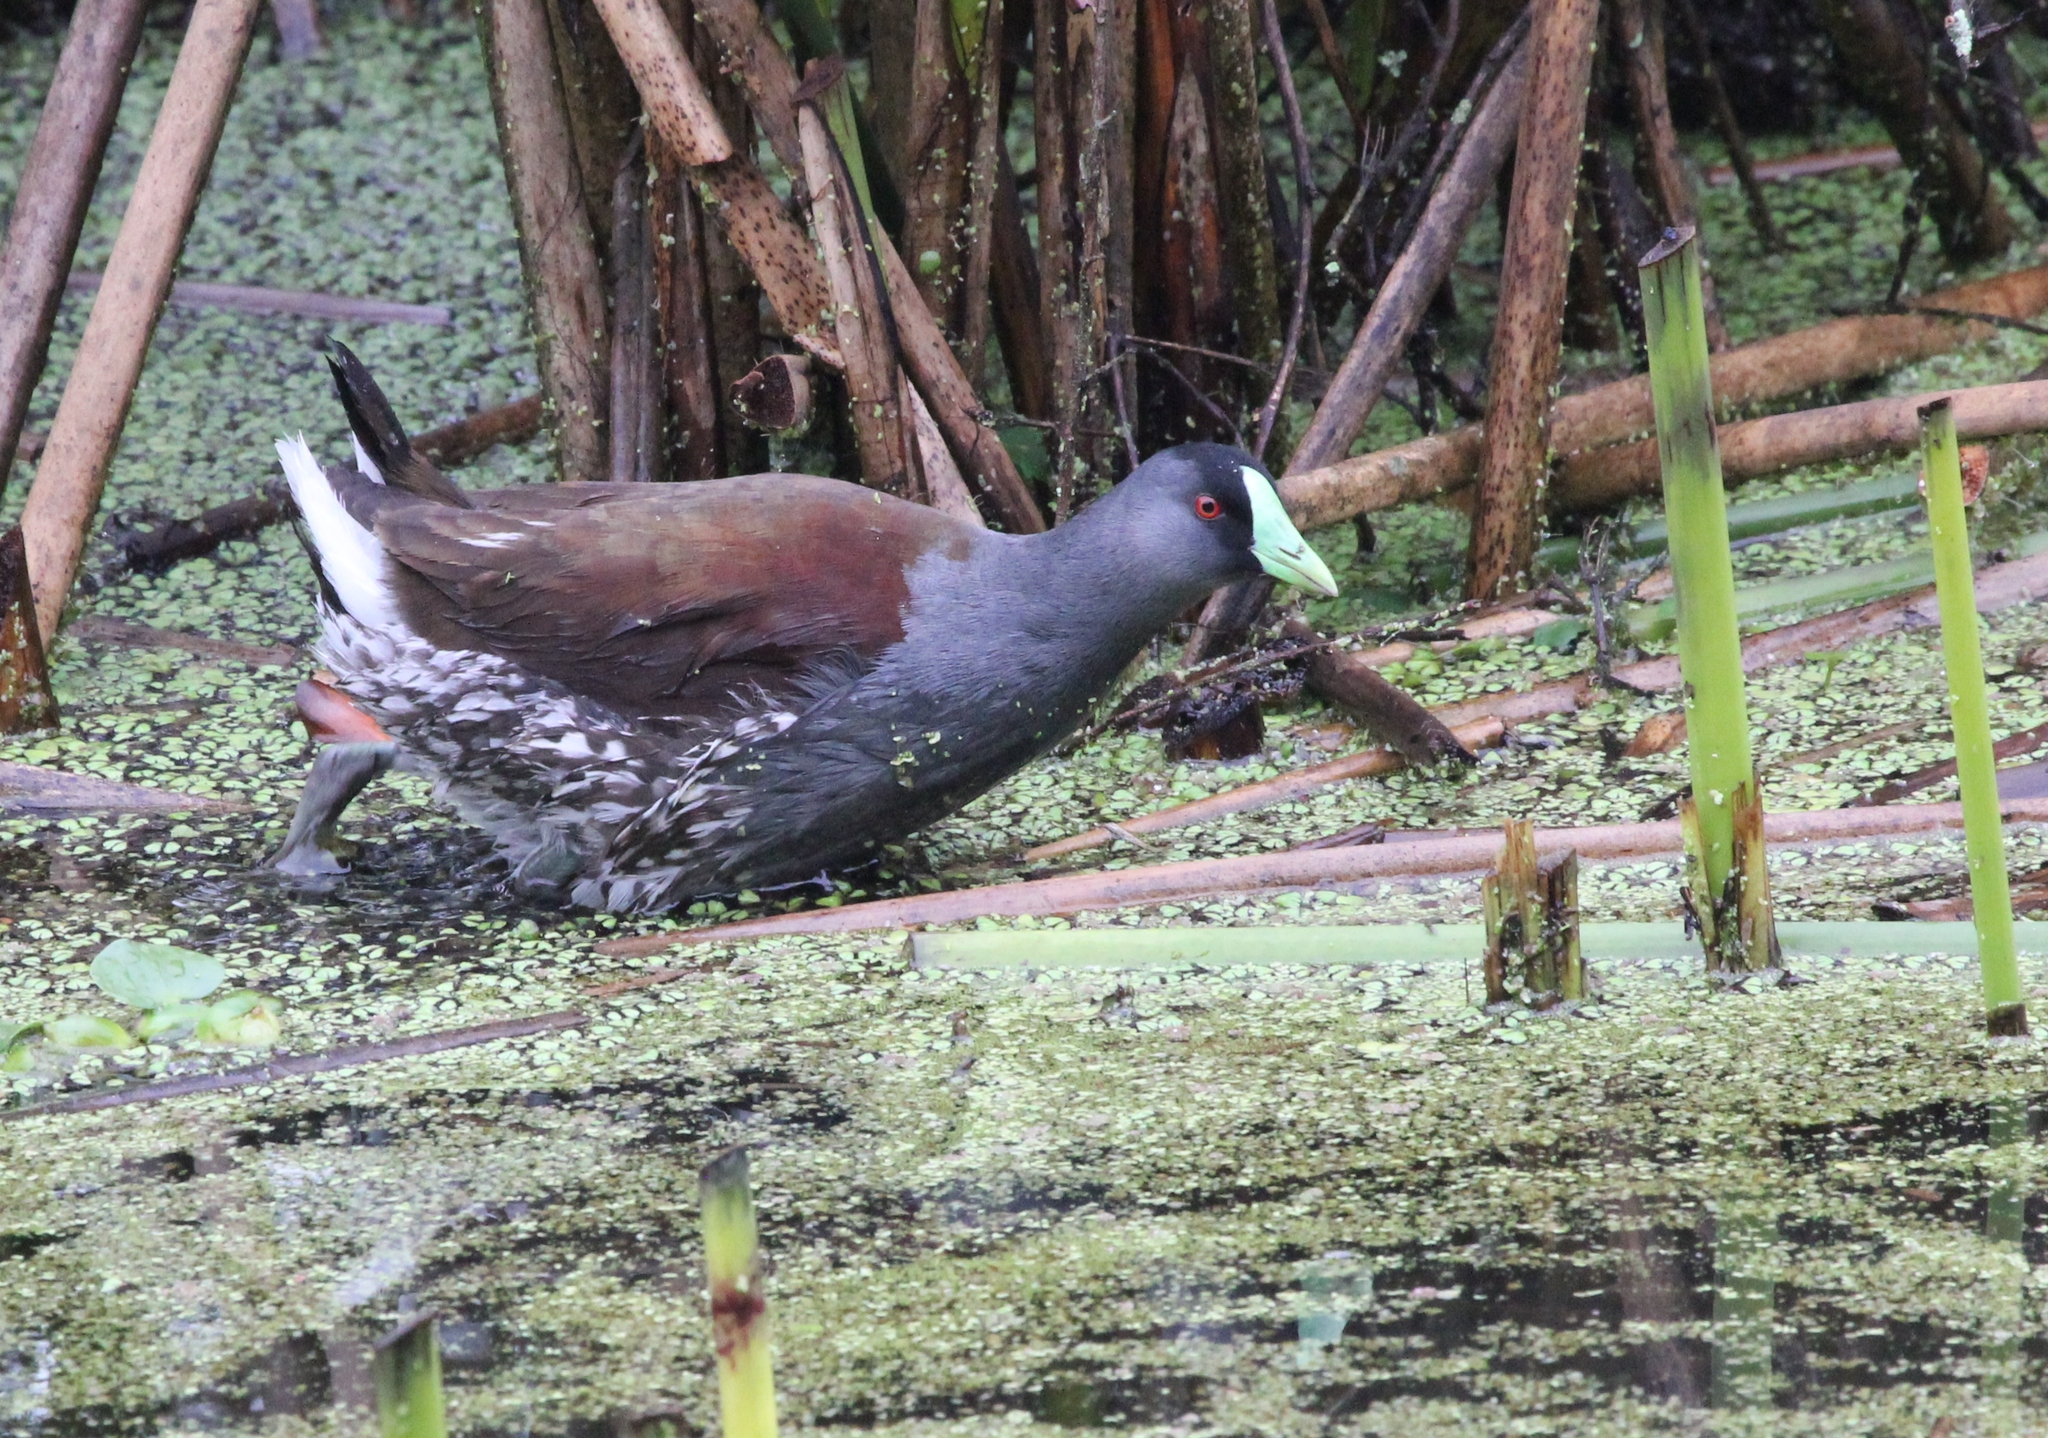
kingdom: Animalia
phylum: Chordata
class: Aves
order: Gruiformes
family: Rallidae
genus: Gallinula
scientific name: Gallinula melanops
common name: Spot-flanked gallinule
